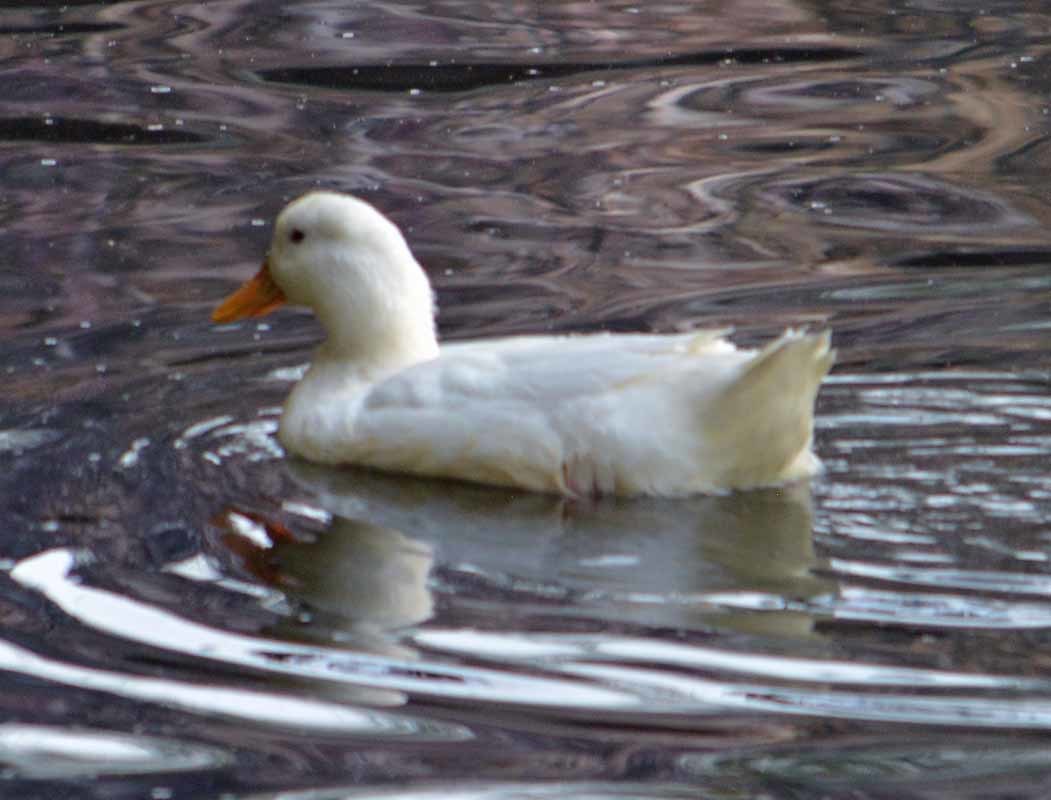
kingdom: Animalia
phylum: Chordata
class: Aves
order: Anseriformes
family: Anatidae
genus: Anas
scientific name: Anas platyrhynchos
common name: Mallard
